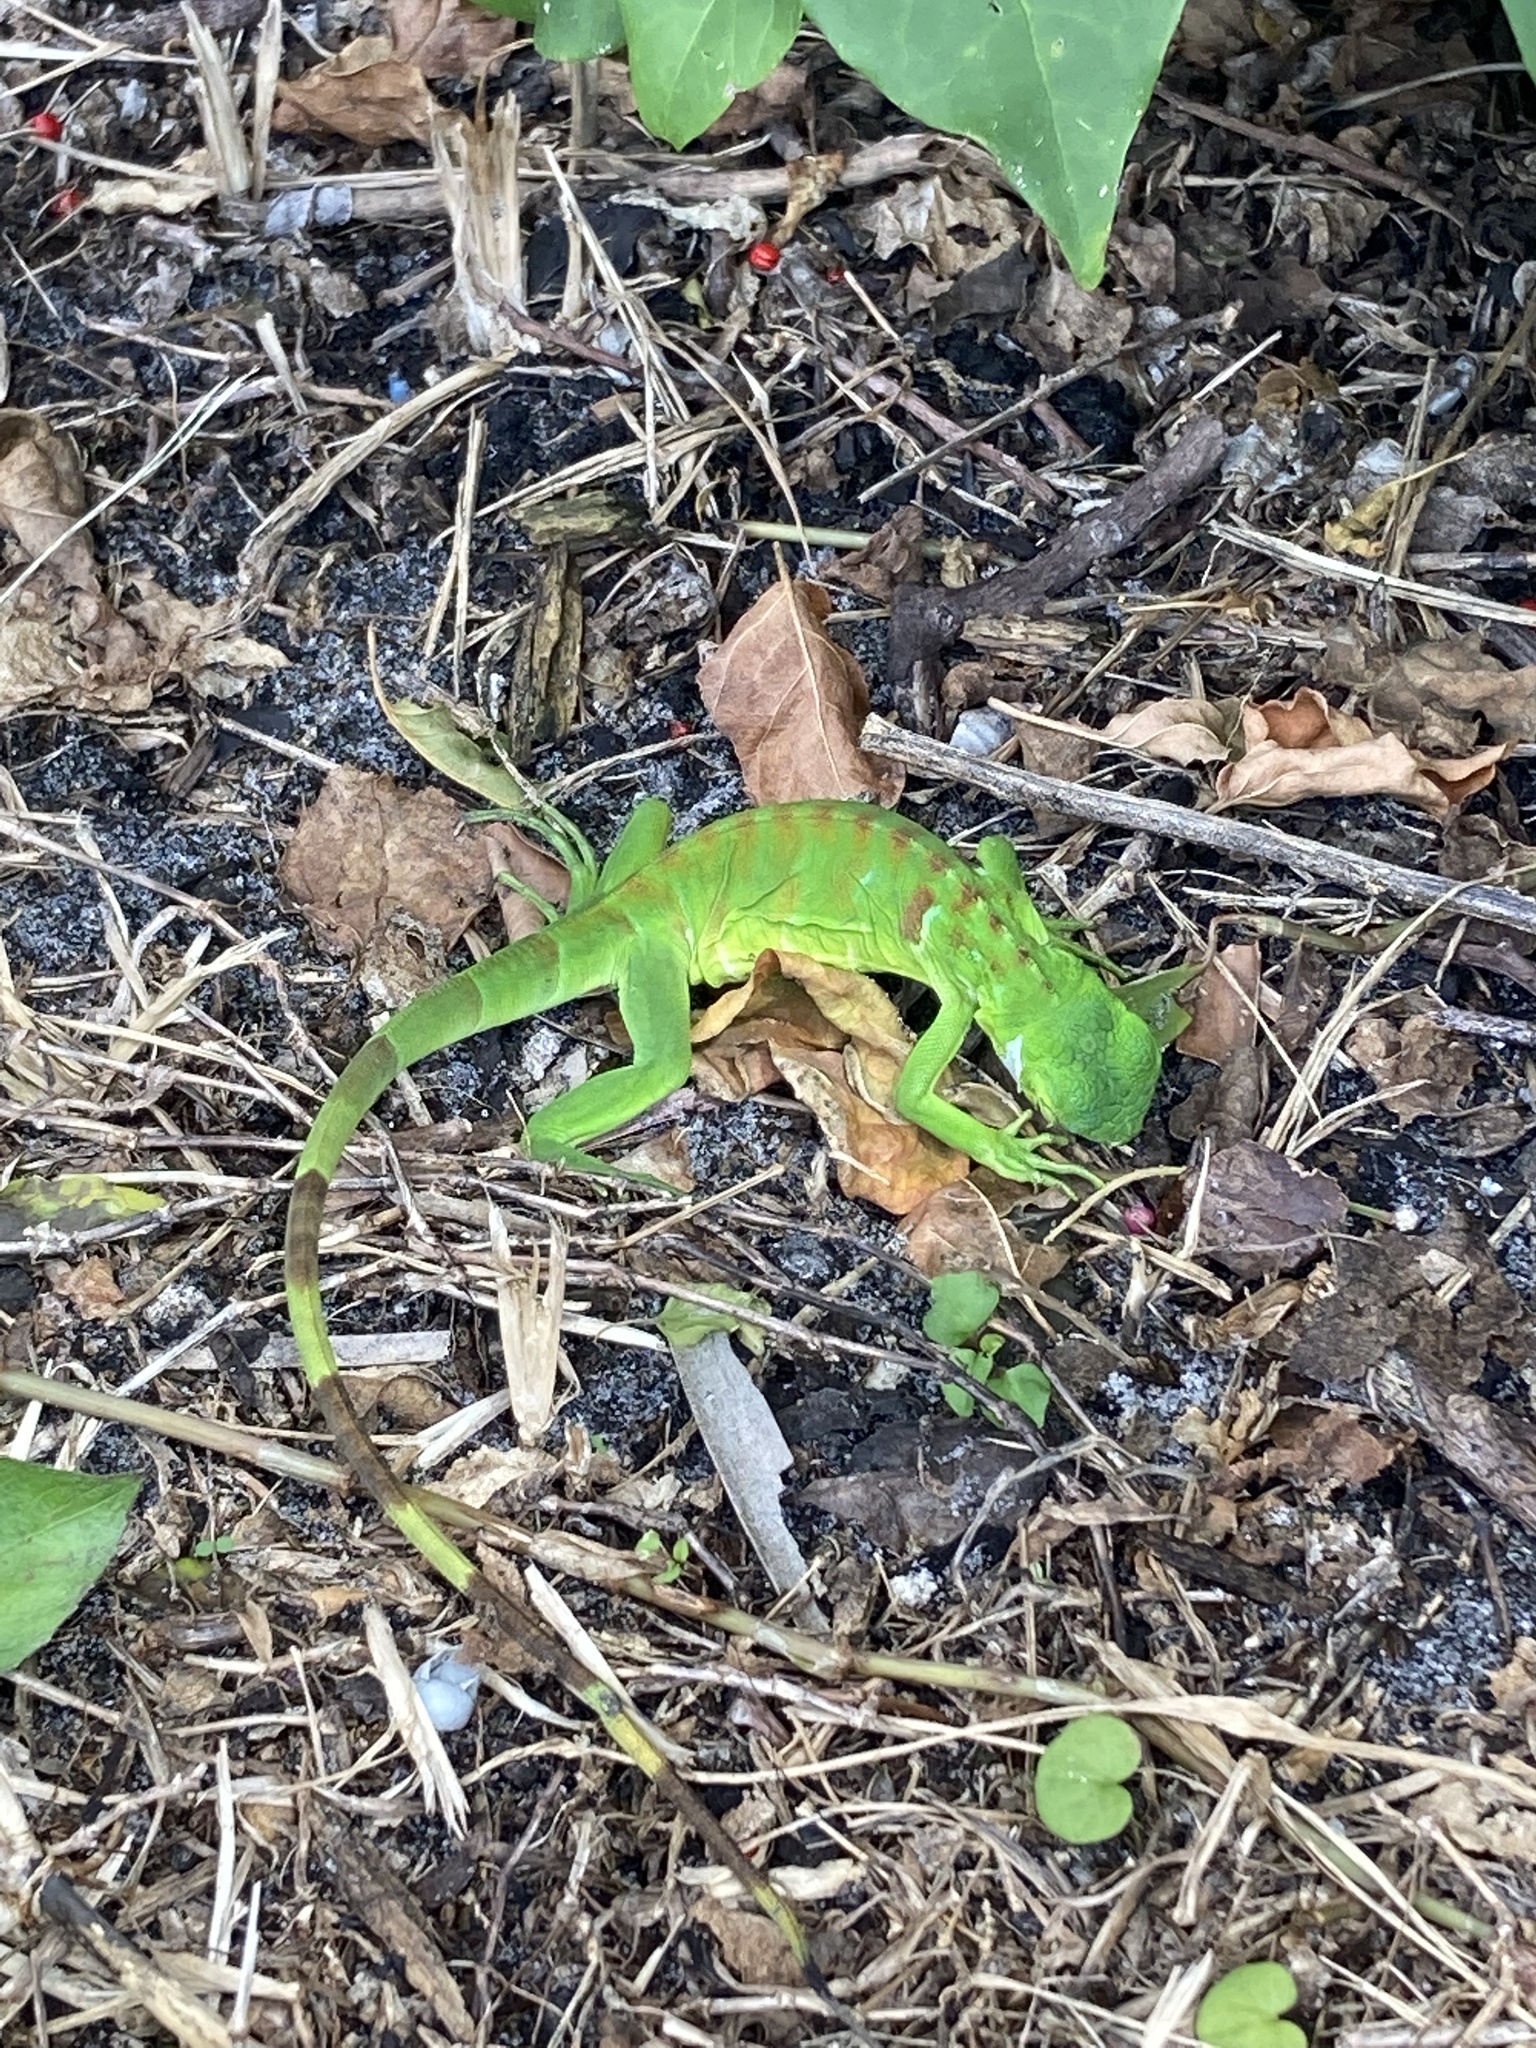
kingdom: Animalia
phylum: Chordata
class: Squamata
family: Iguanidae
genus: Iguana
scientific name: Iguana iguana
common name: Green iguana
